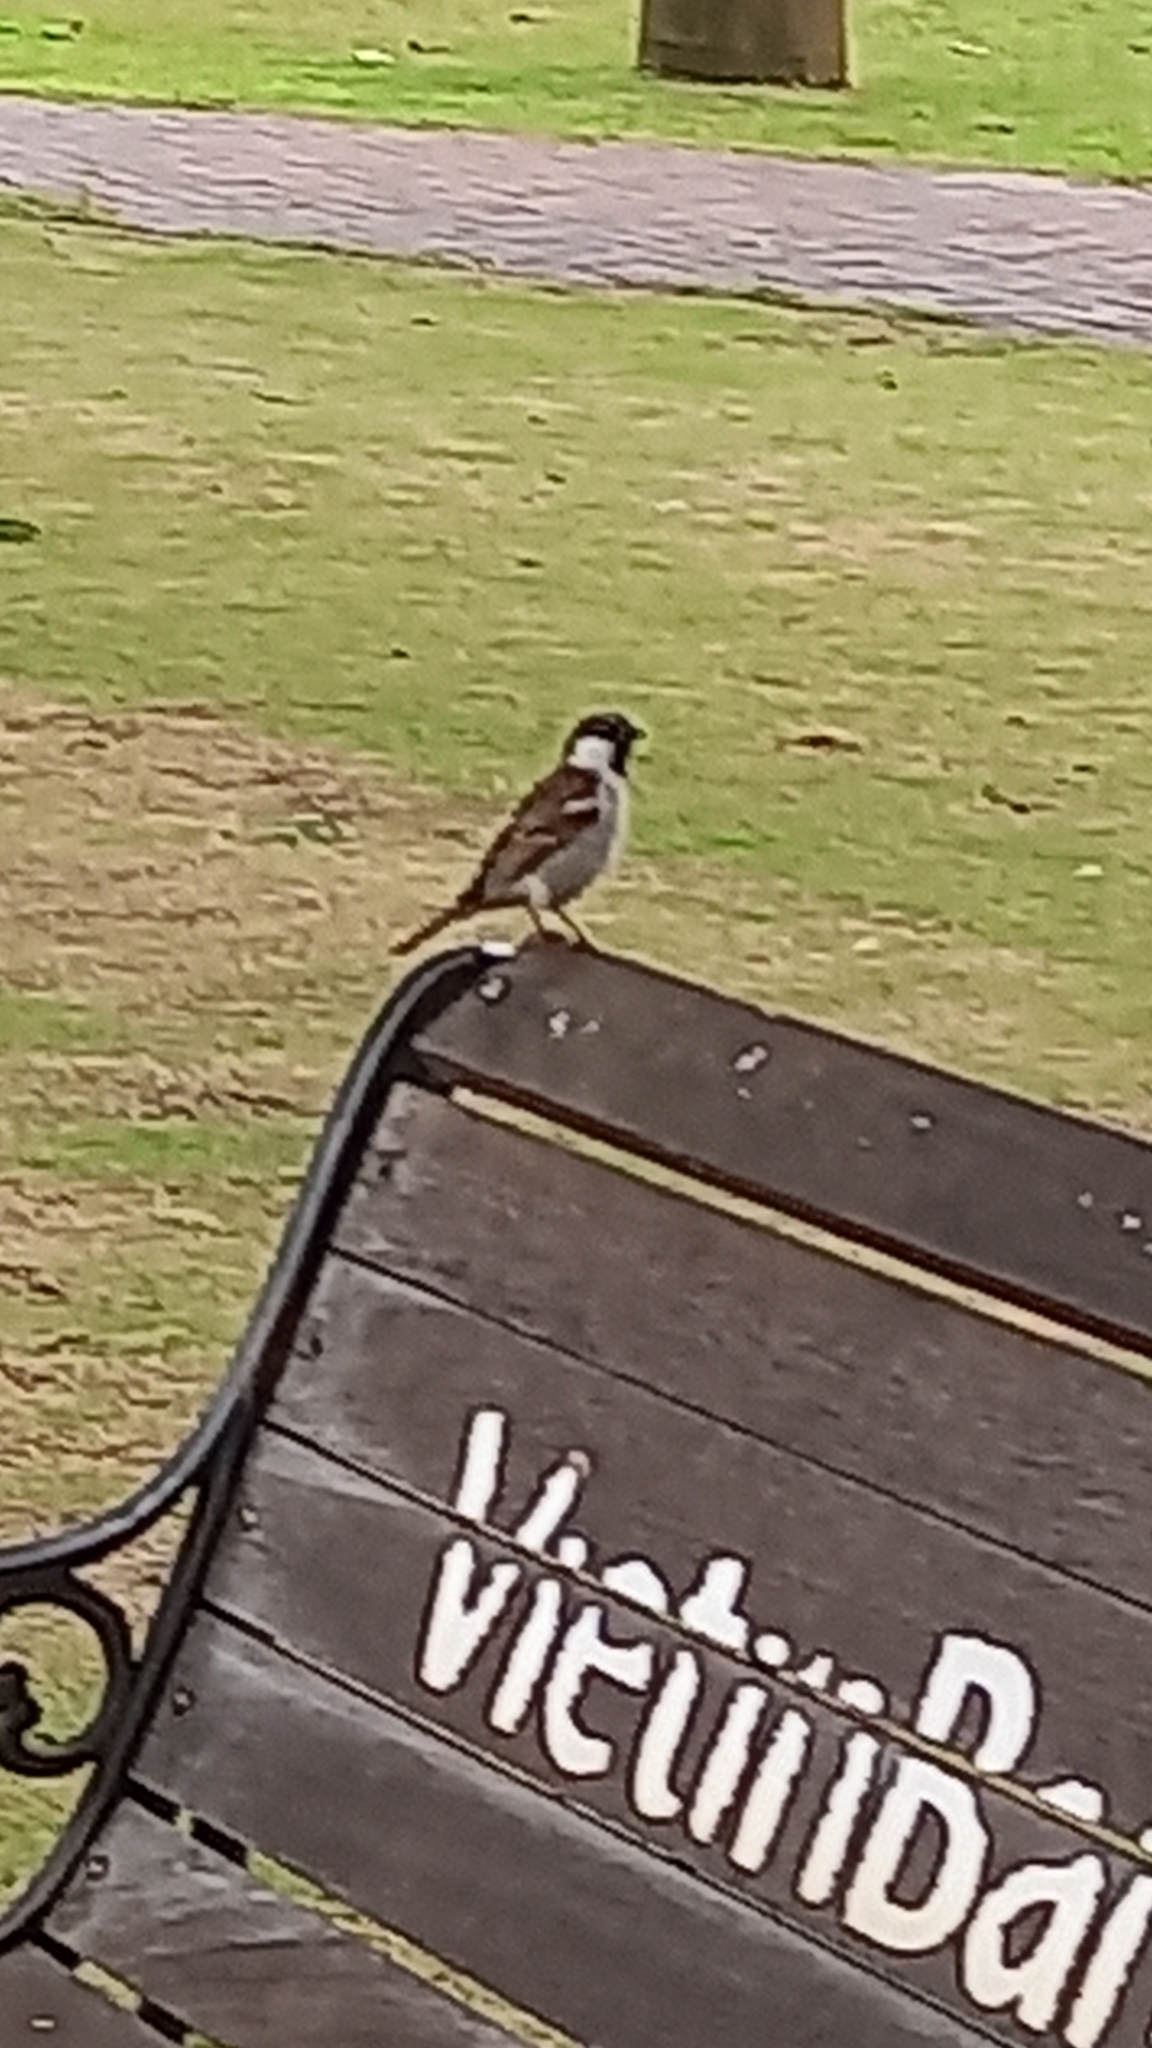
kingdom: Animalia
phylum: Chordata
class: Aves
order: Passeriformes
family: Passeridae
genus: Passer
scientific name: Passer domesticus
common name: House sparrow
